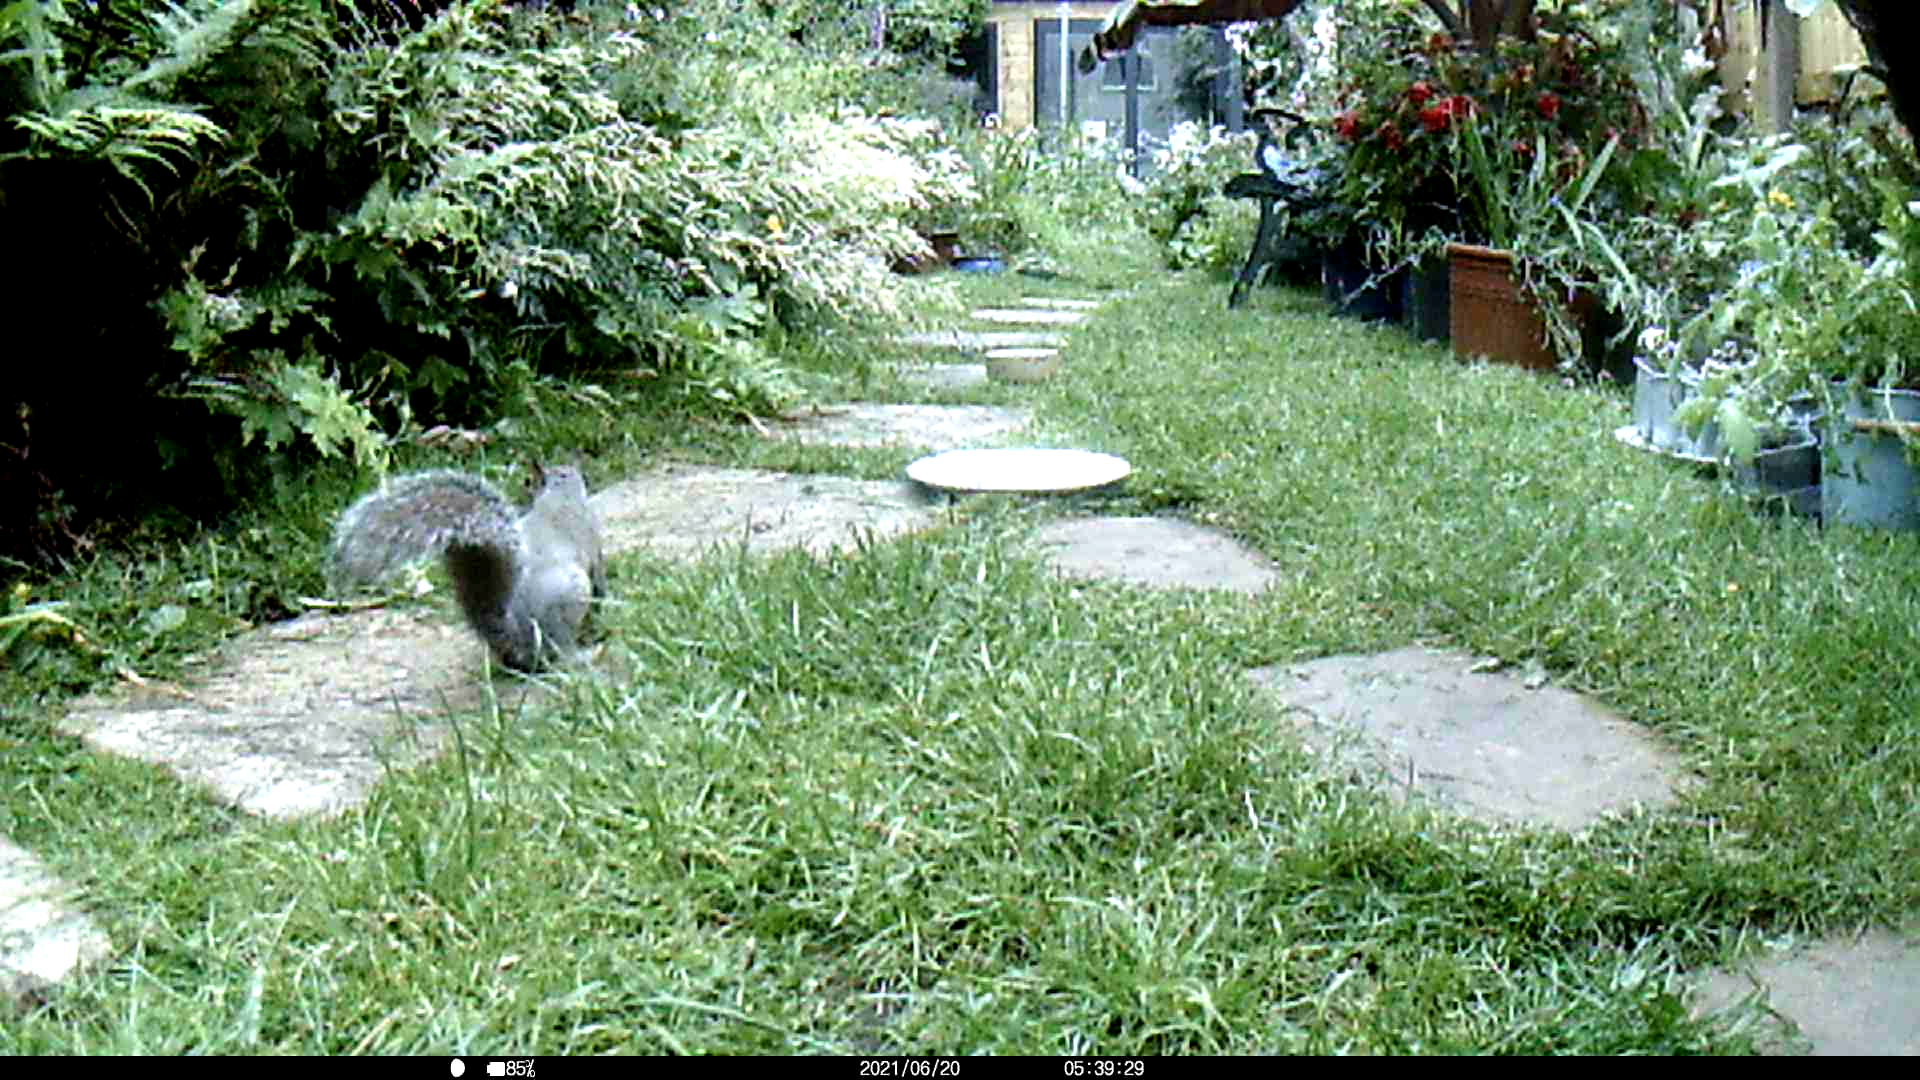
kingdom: Animalia
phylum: Chordata
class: Mammalia
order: Rodentia
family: Sciuridae
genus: Sciurus
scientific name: Sciurus carolinensis
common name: Eastern gray squirrel
